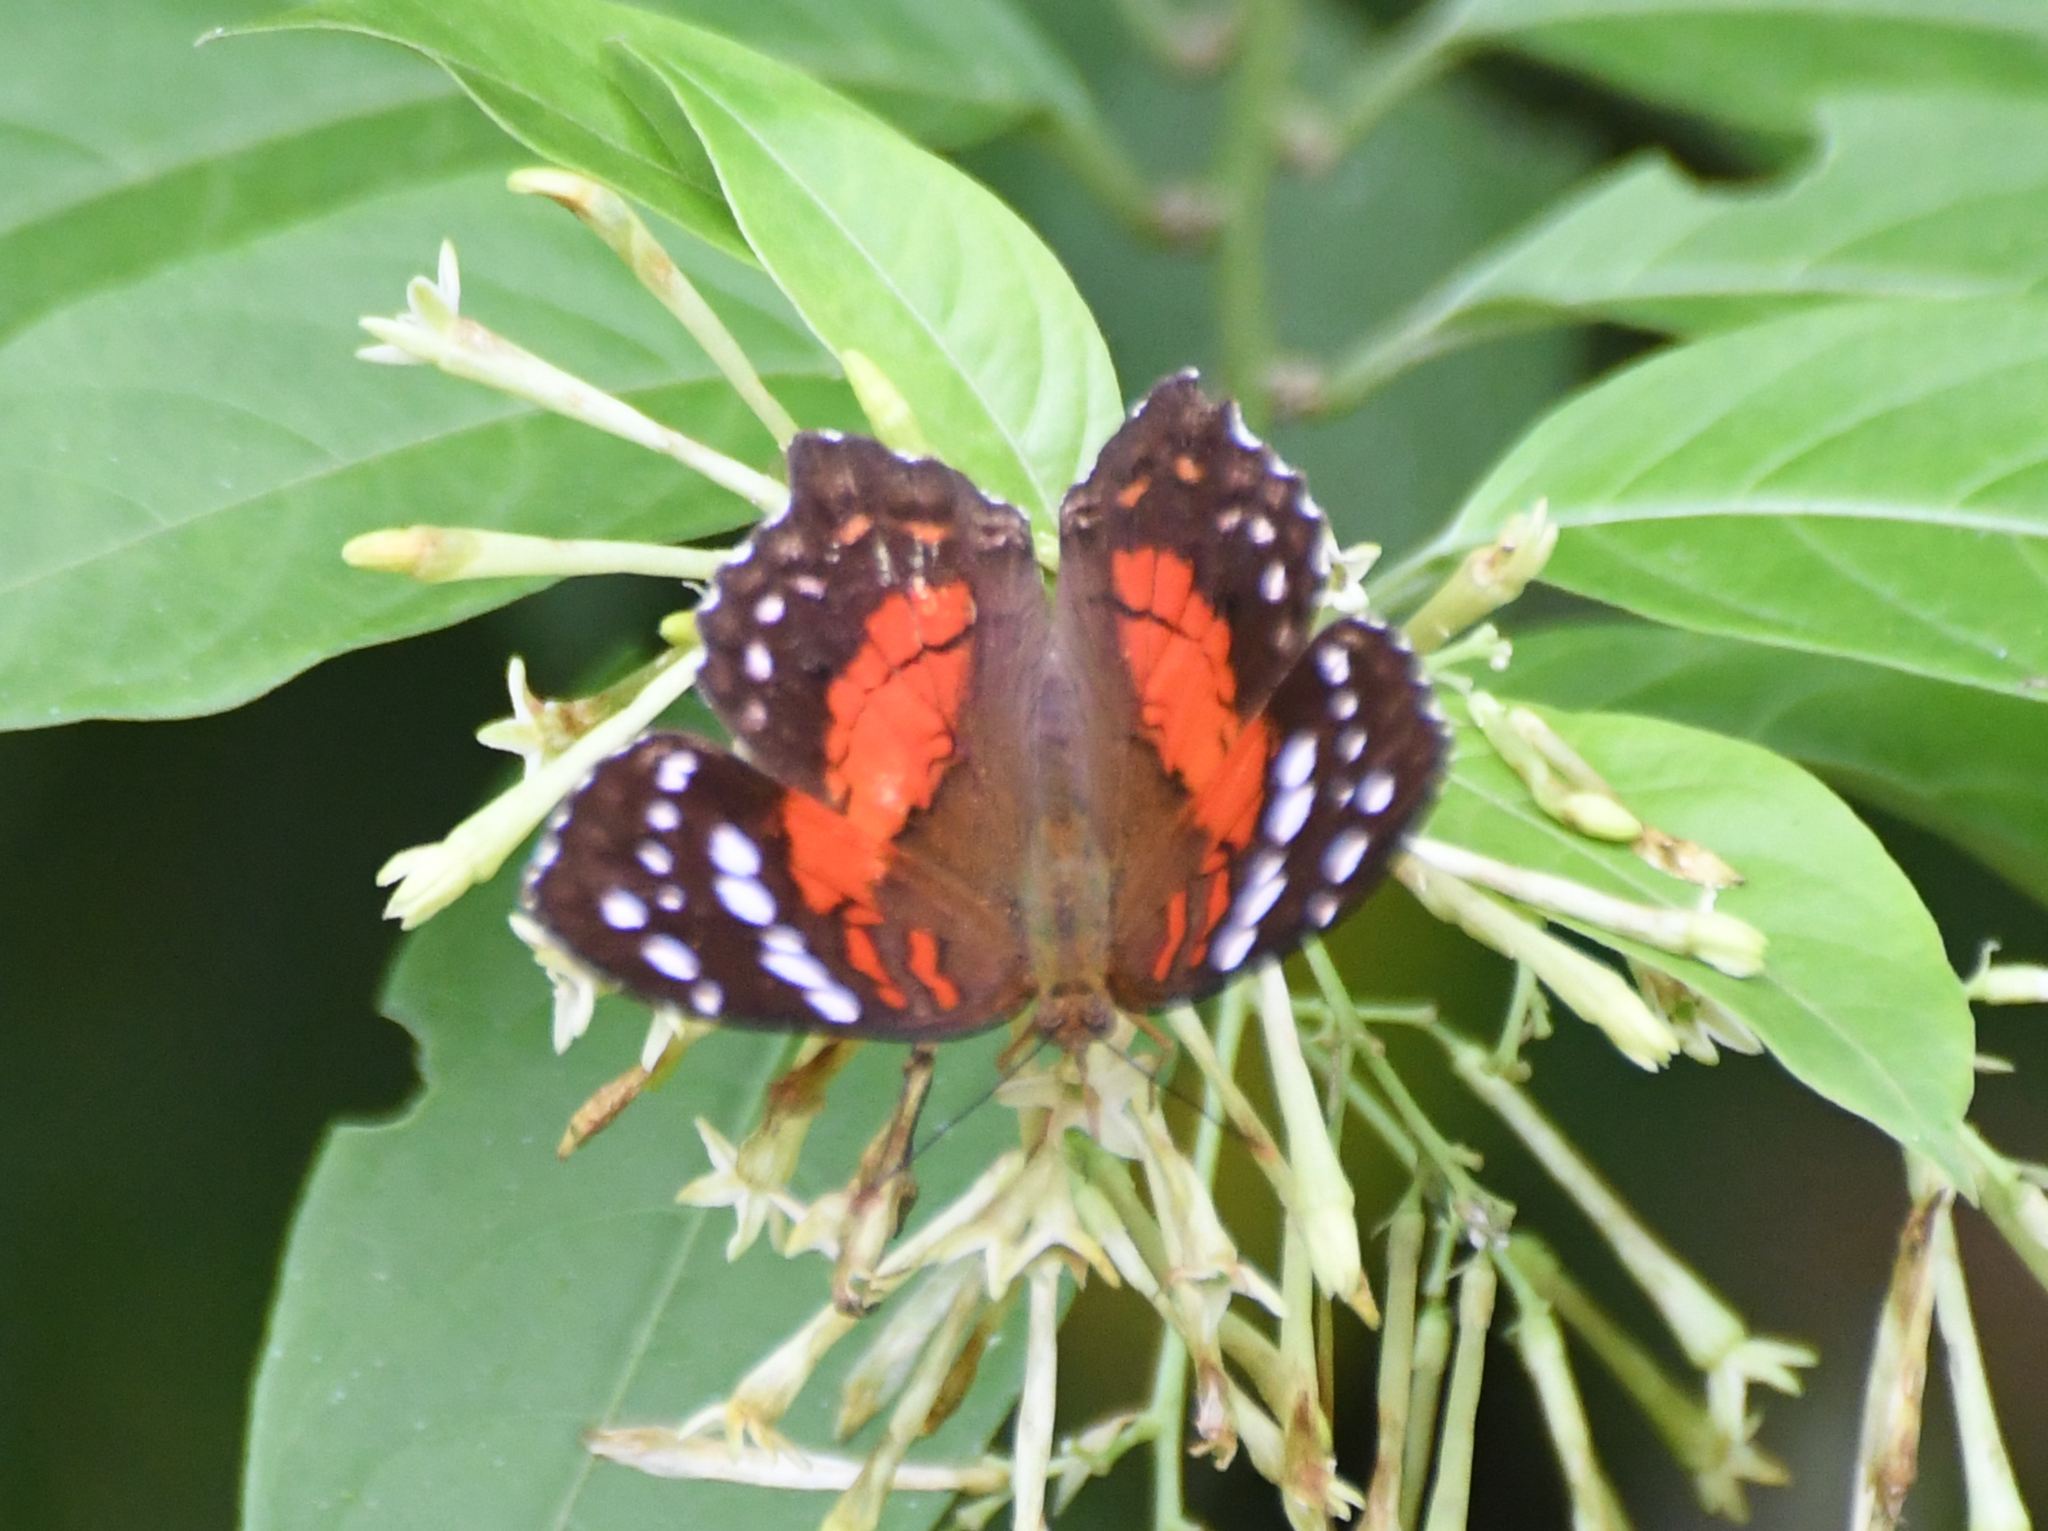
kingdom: Animalia
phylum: Arthropoda
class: Insecta
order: Lepidoptera
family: Nymphalidae
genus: Anartia
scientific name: Anartia amathea
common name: Red peacock
